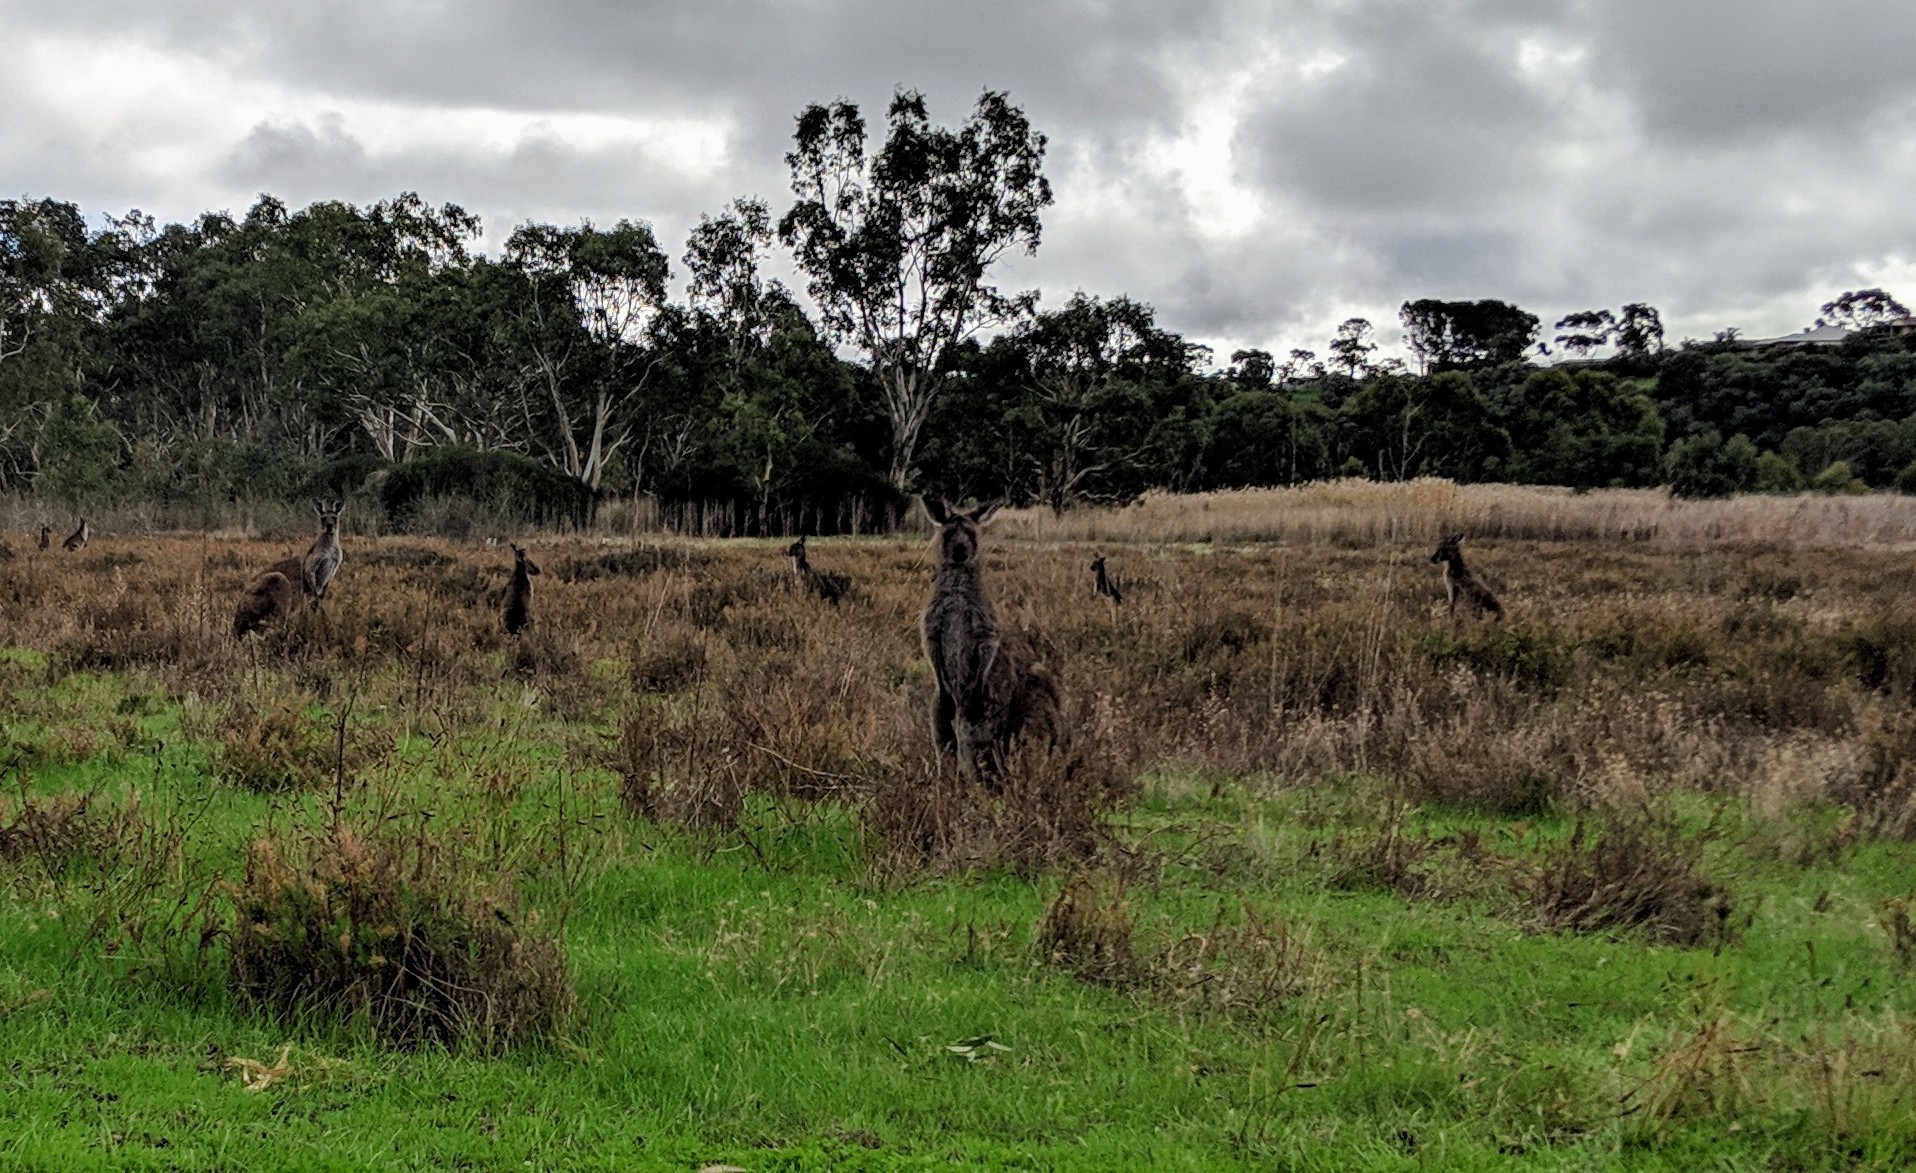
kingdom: Animalia
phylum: Chordata
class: Mammalia
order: Diprotodontia
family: Macropodidae
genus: Macropus
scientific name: Macropus fuliginosus
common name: Western grey kangaroo
